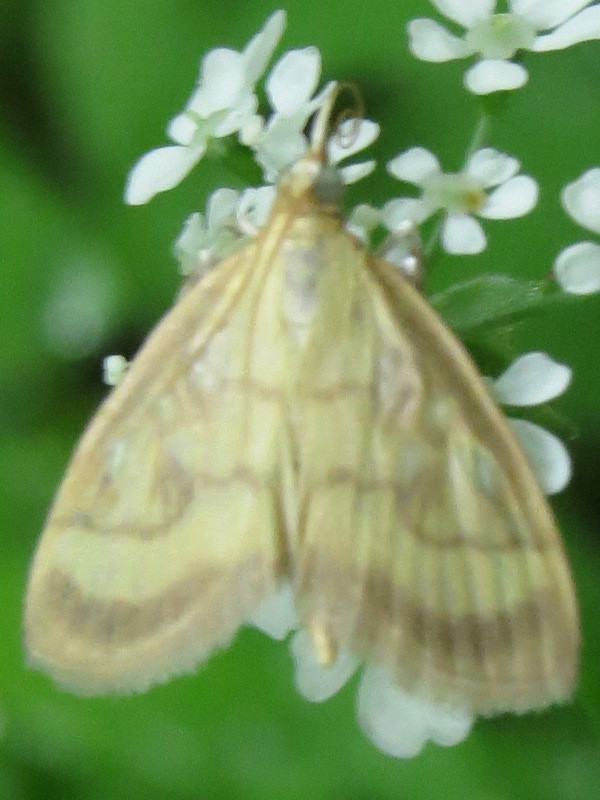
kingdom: Animalia
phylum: Arthropoda
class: Insecta
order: Lepidoptera
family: Crambidae
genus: Crocidophora
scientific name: Crocidophora tuberculalis
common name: Pale-winged crocidiphora moth
